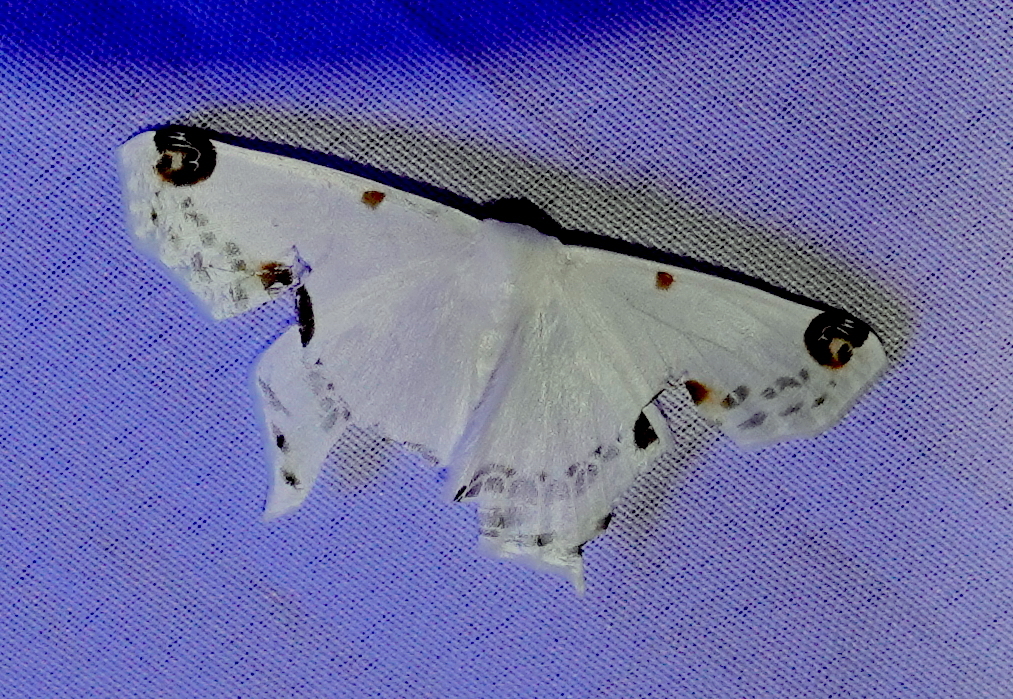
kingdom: Animalia
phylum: Arthropoda
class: Insecta
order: Lepidoptera
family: Geometridae
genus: Sericoptera
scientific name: Sericoptera mahometaria
